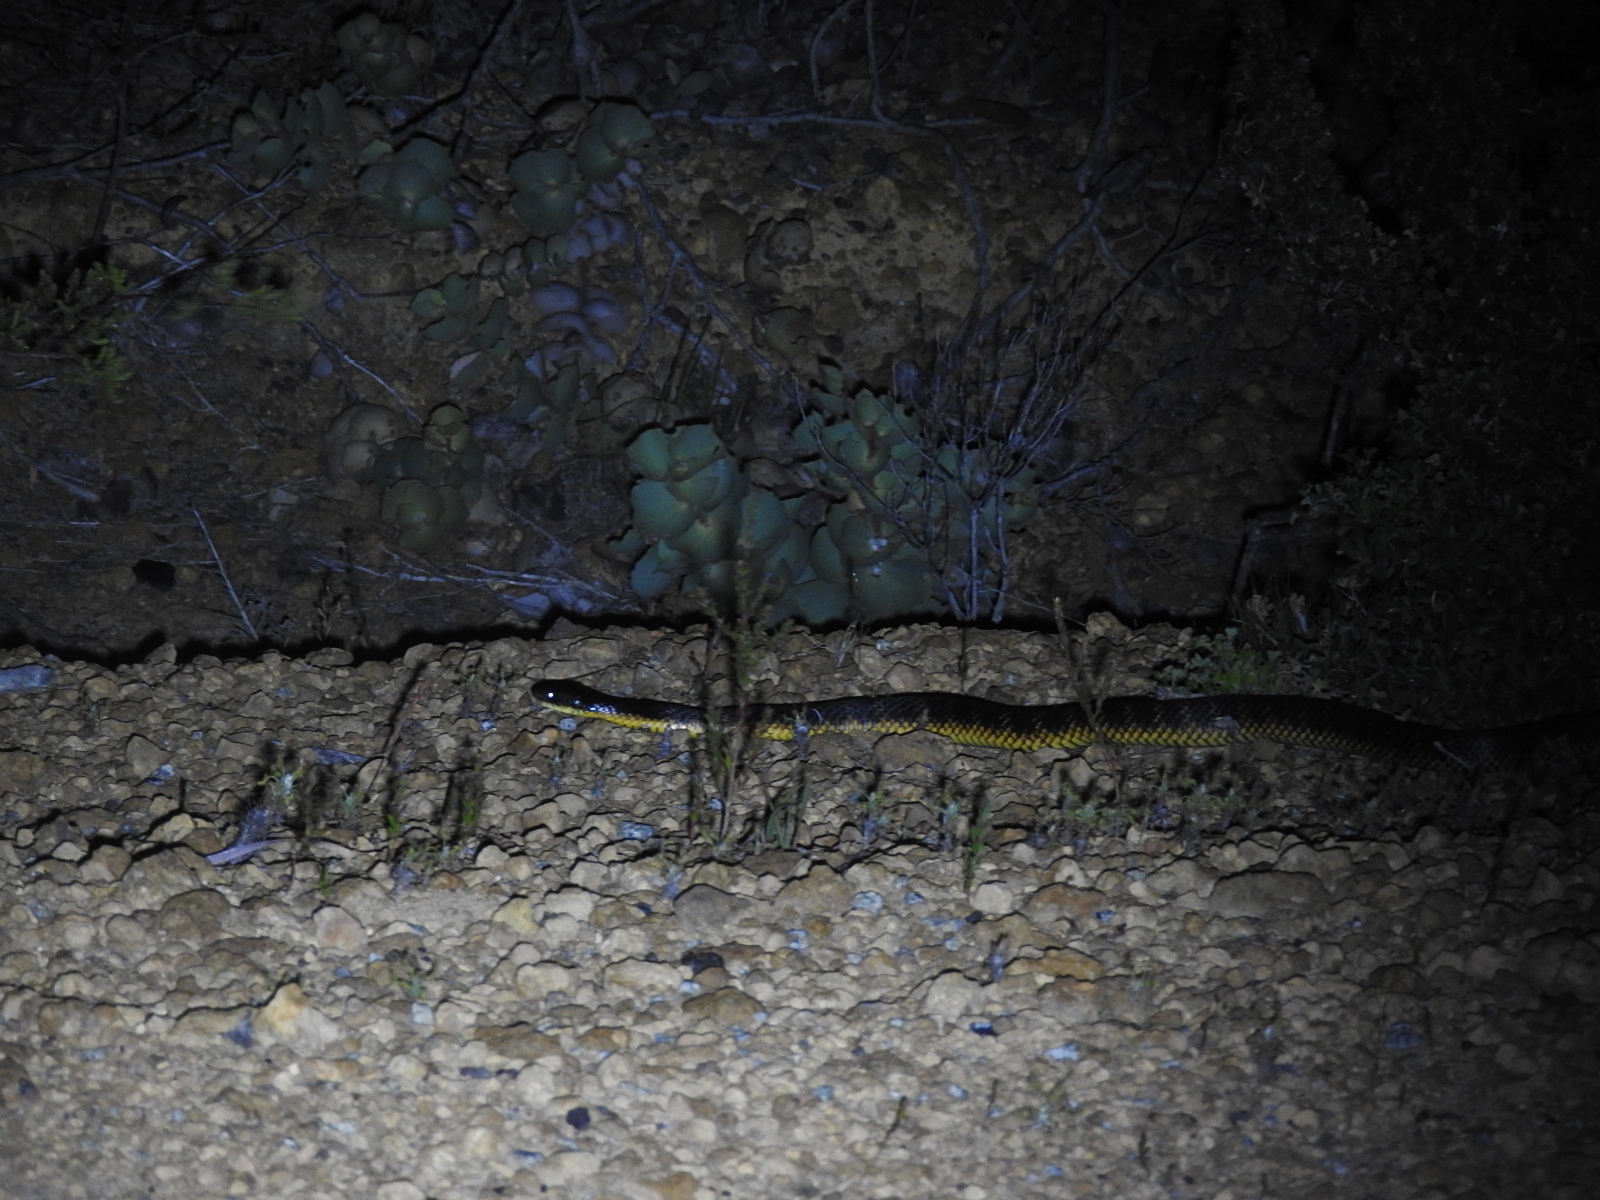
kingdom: Animalia
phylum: Chordata
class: Squamata
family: Elapidae
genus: Notechis
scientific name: Notechis scutatus
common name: Mainland tiger snake
